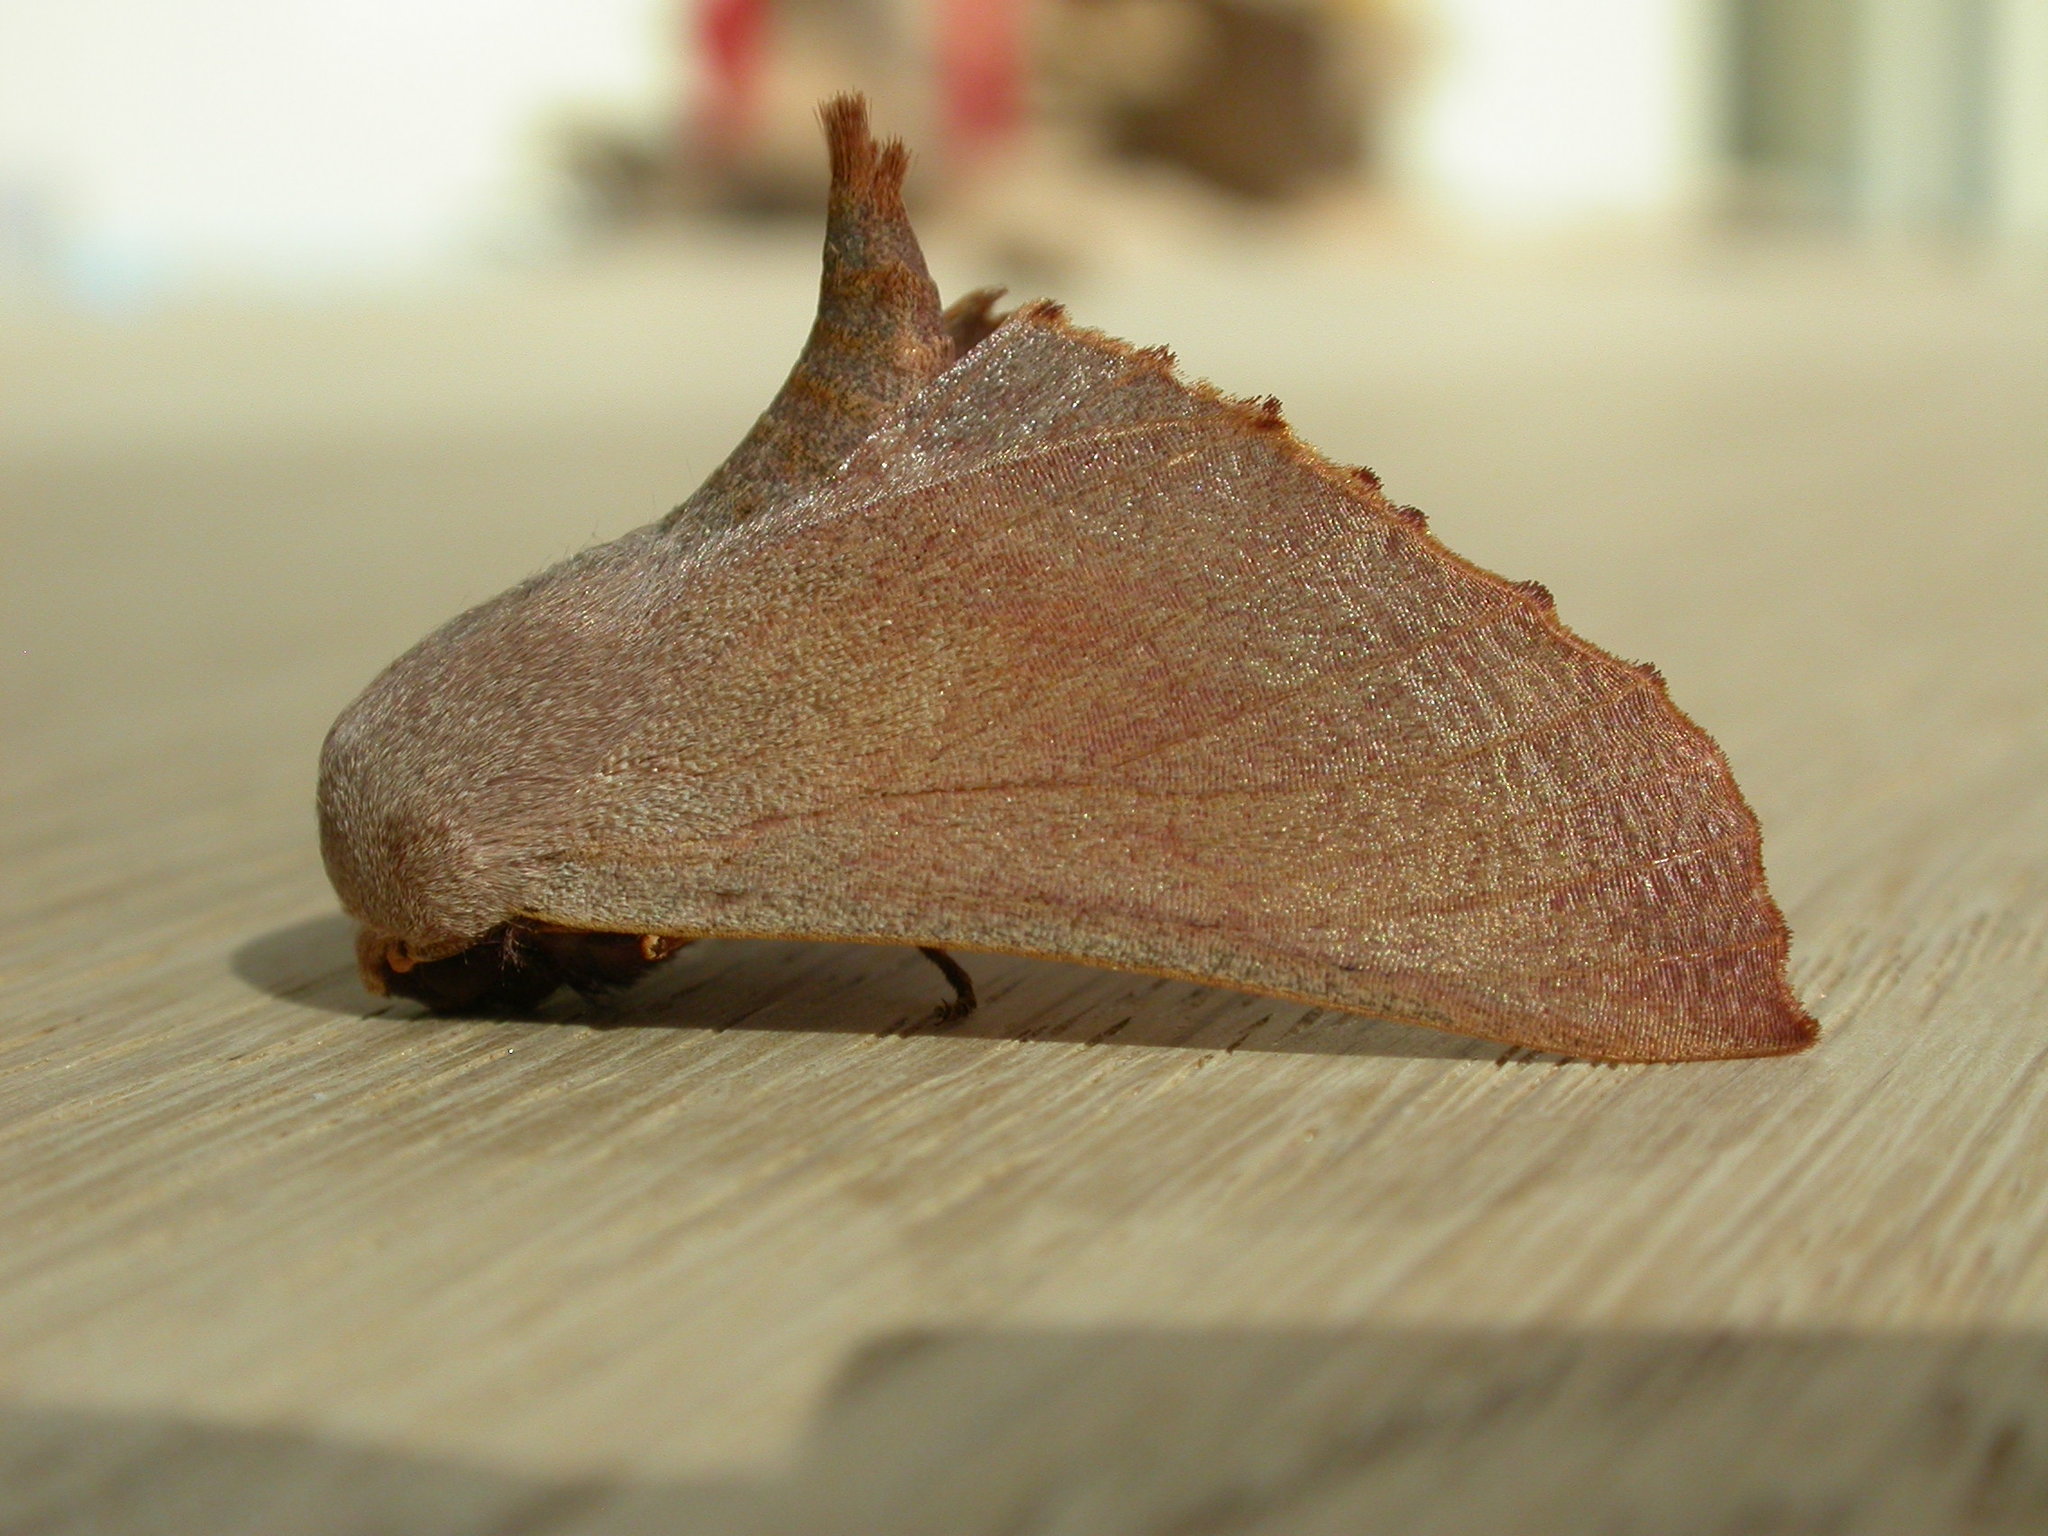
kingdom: Animalia
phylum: Arthropoda
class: Insecta
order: Lepidoptera
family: Geometridae
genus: Monoctenia
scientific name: Monoctenia smerintharia
